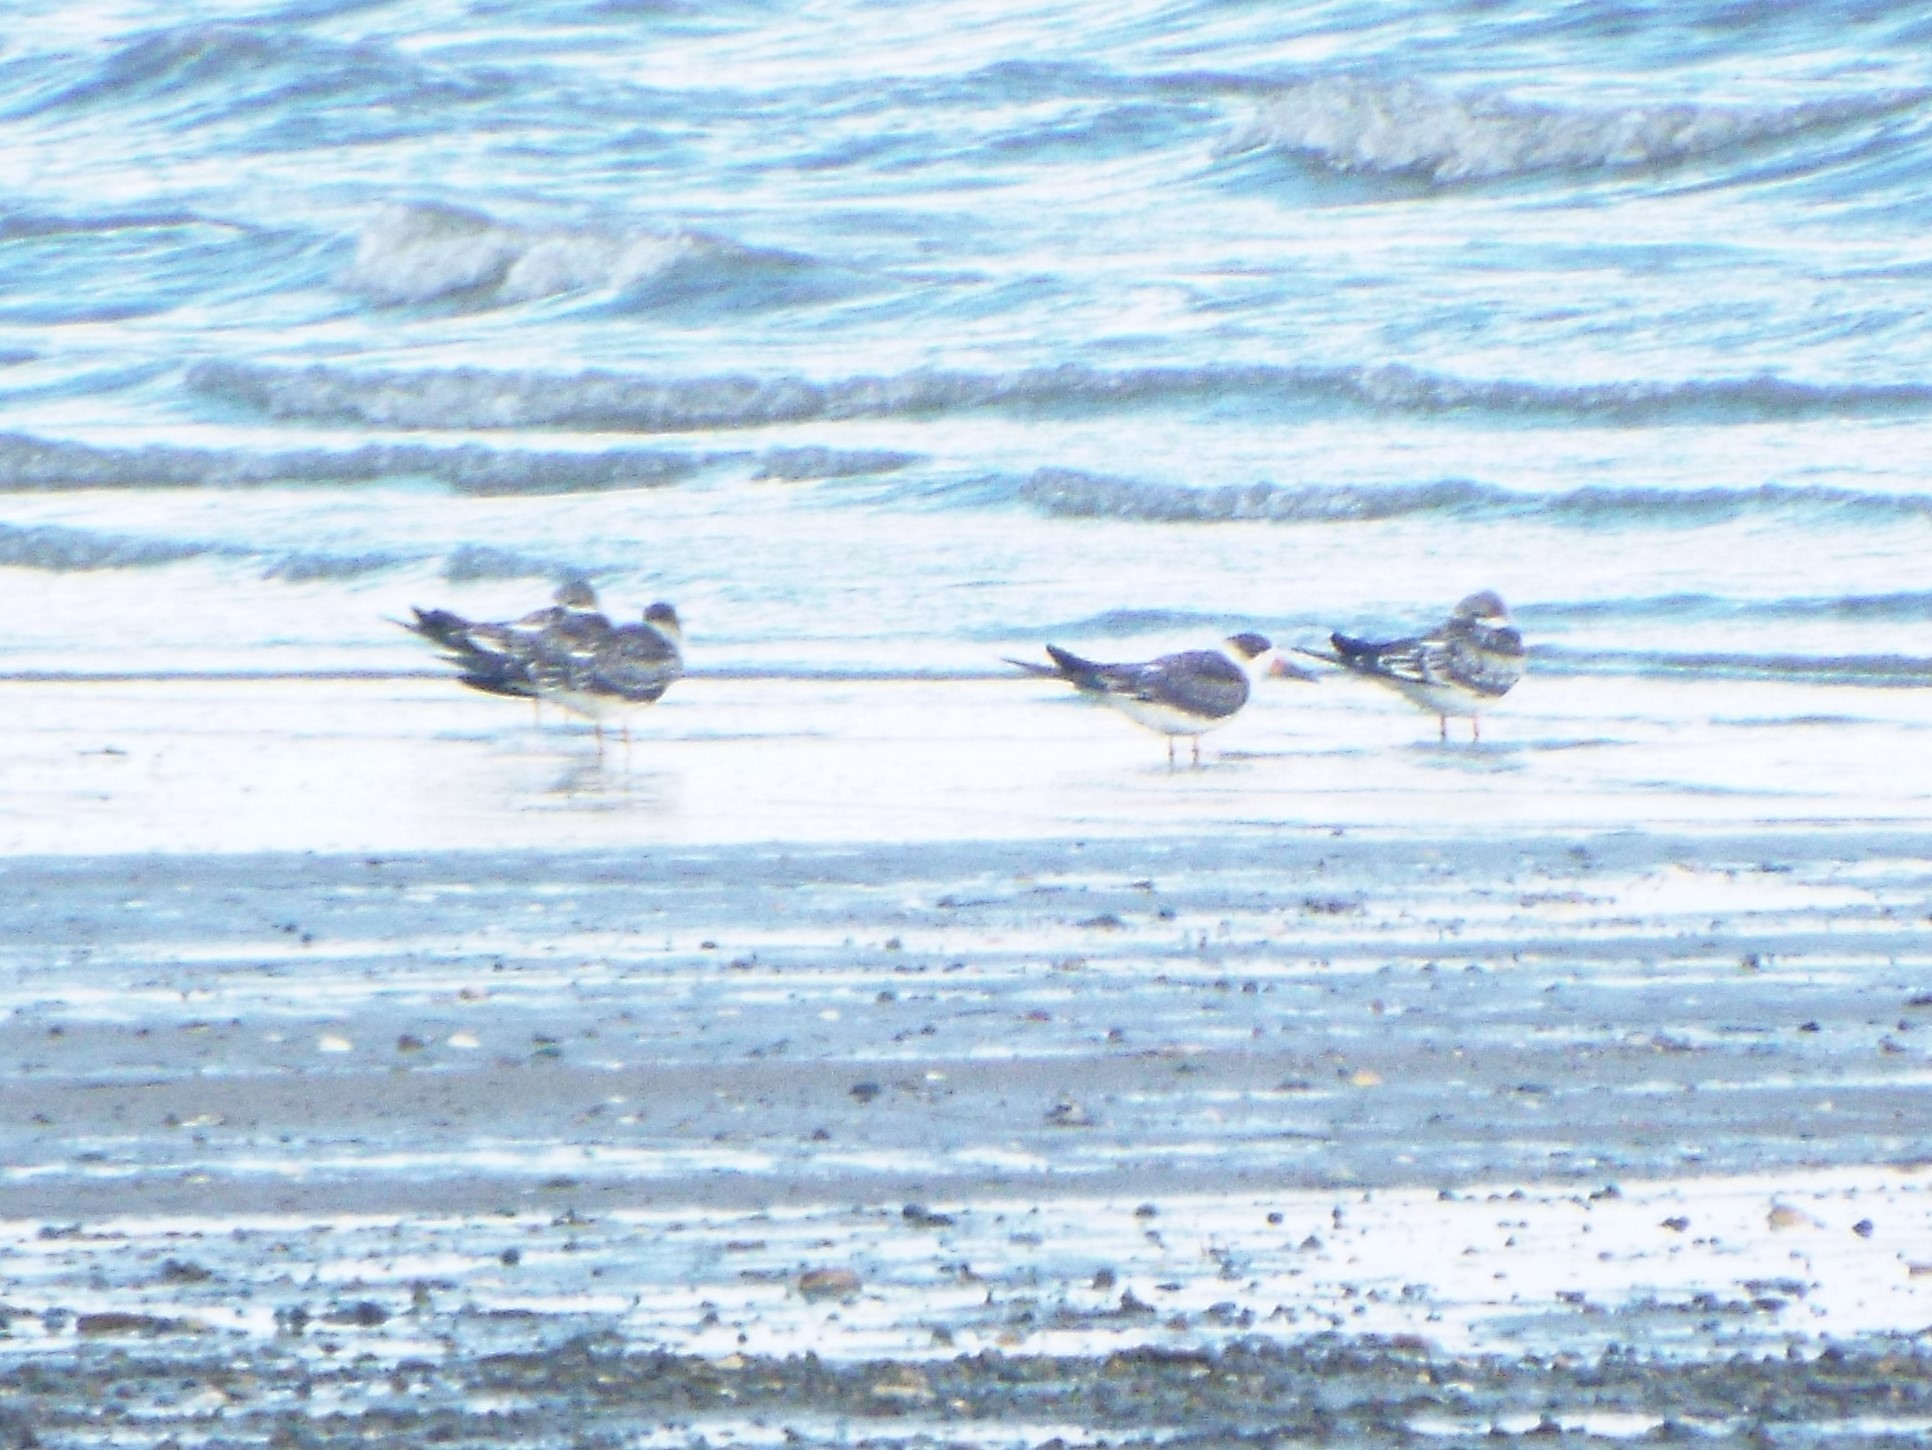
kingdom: Animalia
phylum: Chordata
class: Aves
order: Charadriiformes
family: Laridae
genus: Rynchops
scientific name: Rynchops niger
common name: Black skimmer
